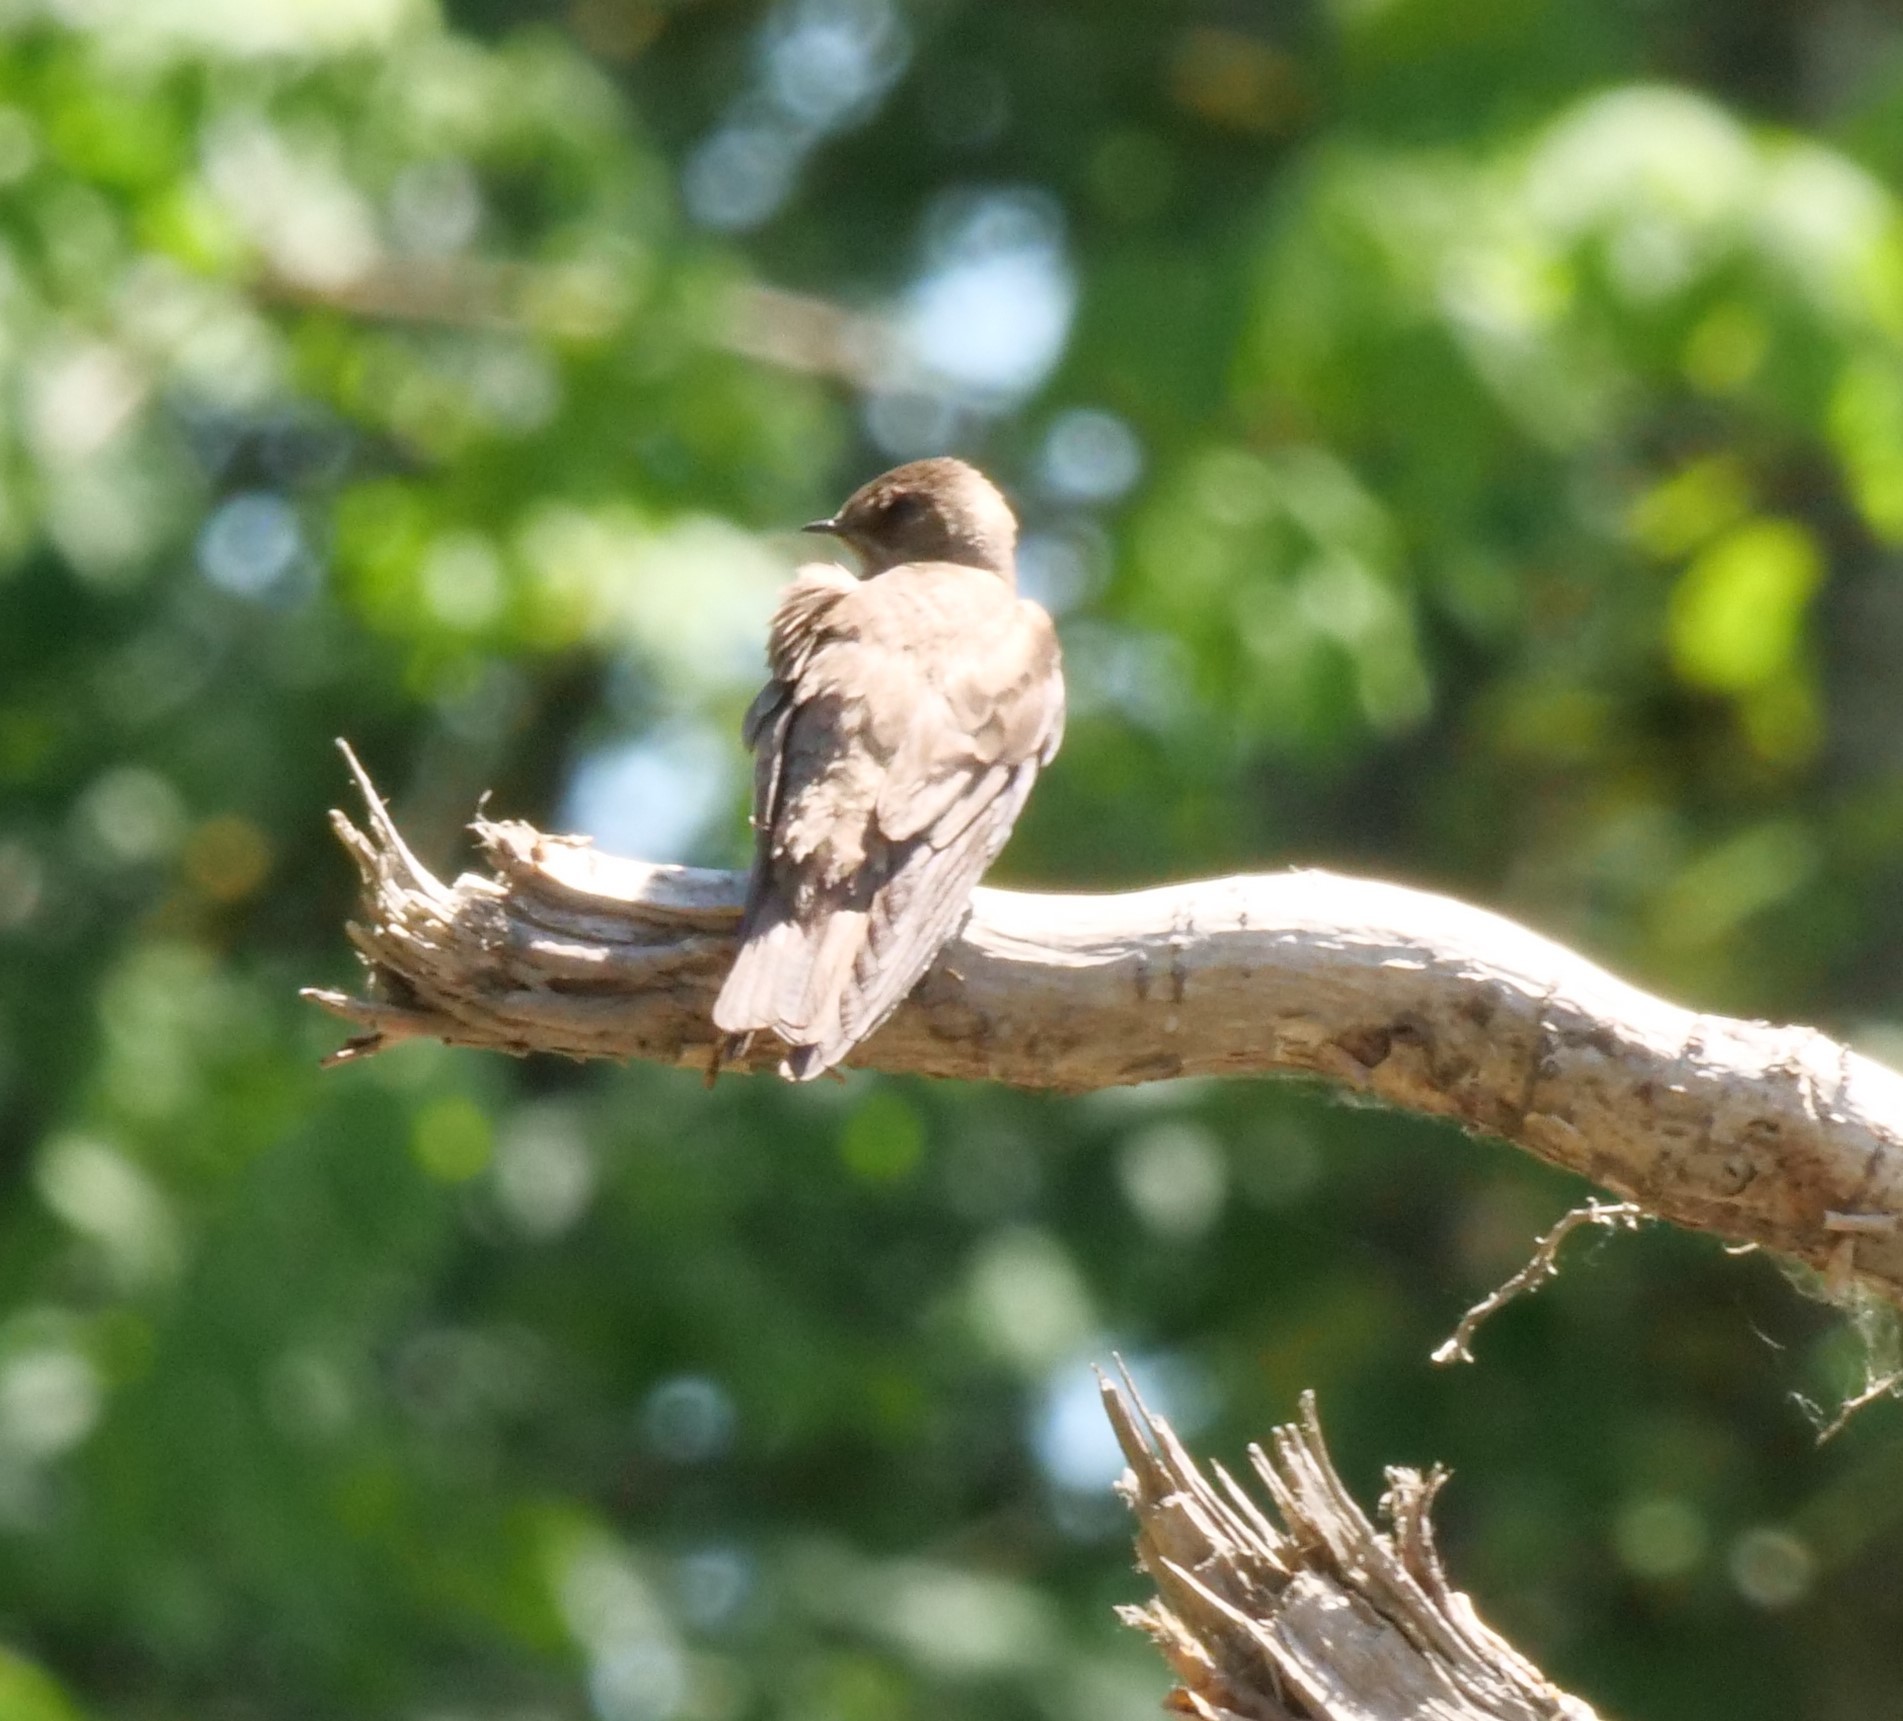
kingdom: Animalia
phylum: Chordata
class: Aves
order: Passeriformes
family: Hirundinidae
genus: Stelgidopteryx
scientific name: Stelgidopteryx serripennis
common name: Northern rough-winged swallow
